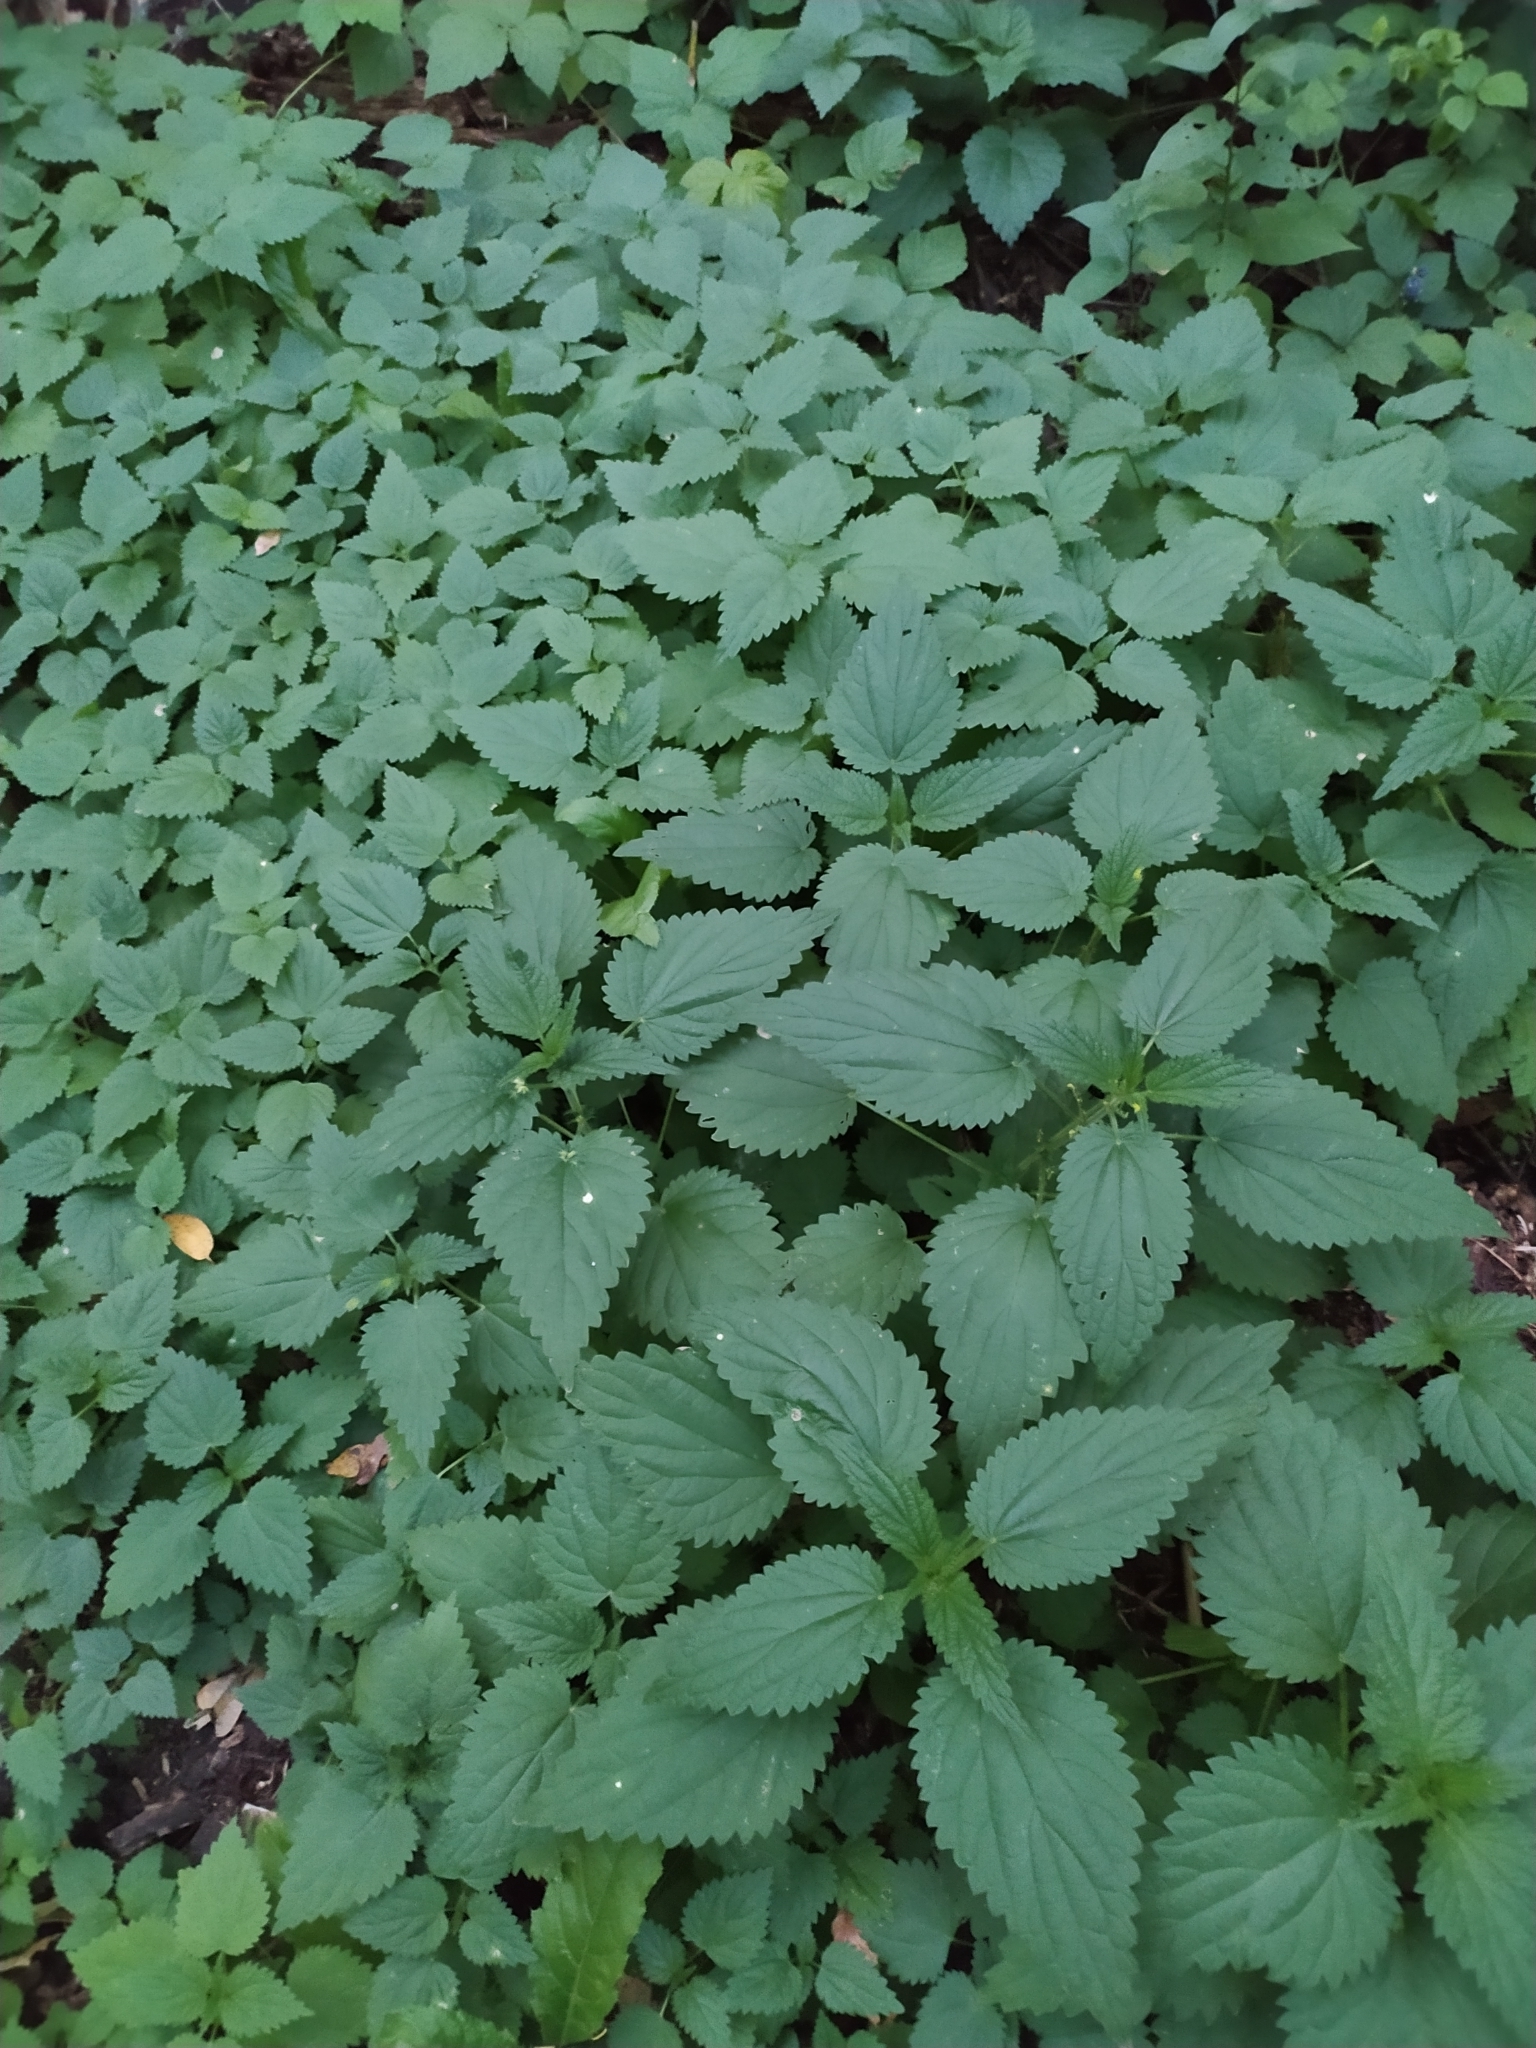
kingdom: Plantae
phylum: Tracheophyta
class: Magnoliopsida
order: Rosales
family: Urticaceae
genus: Urtica
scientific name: Urtica dioica
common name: Common nettle
